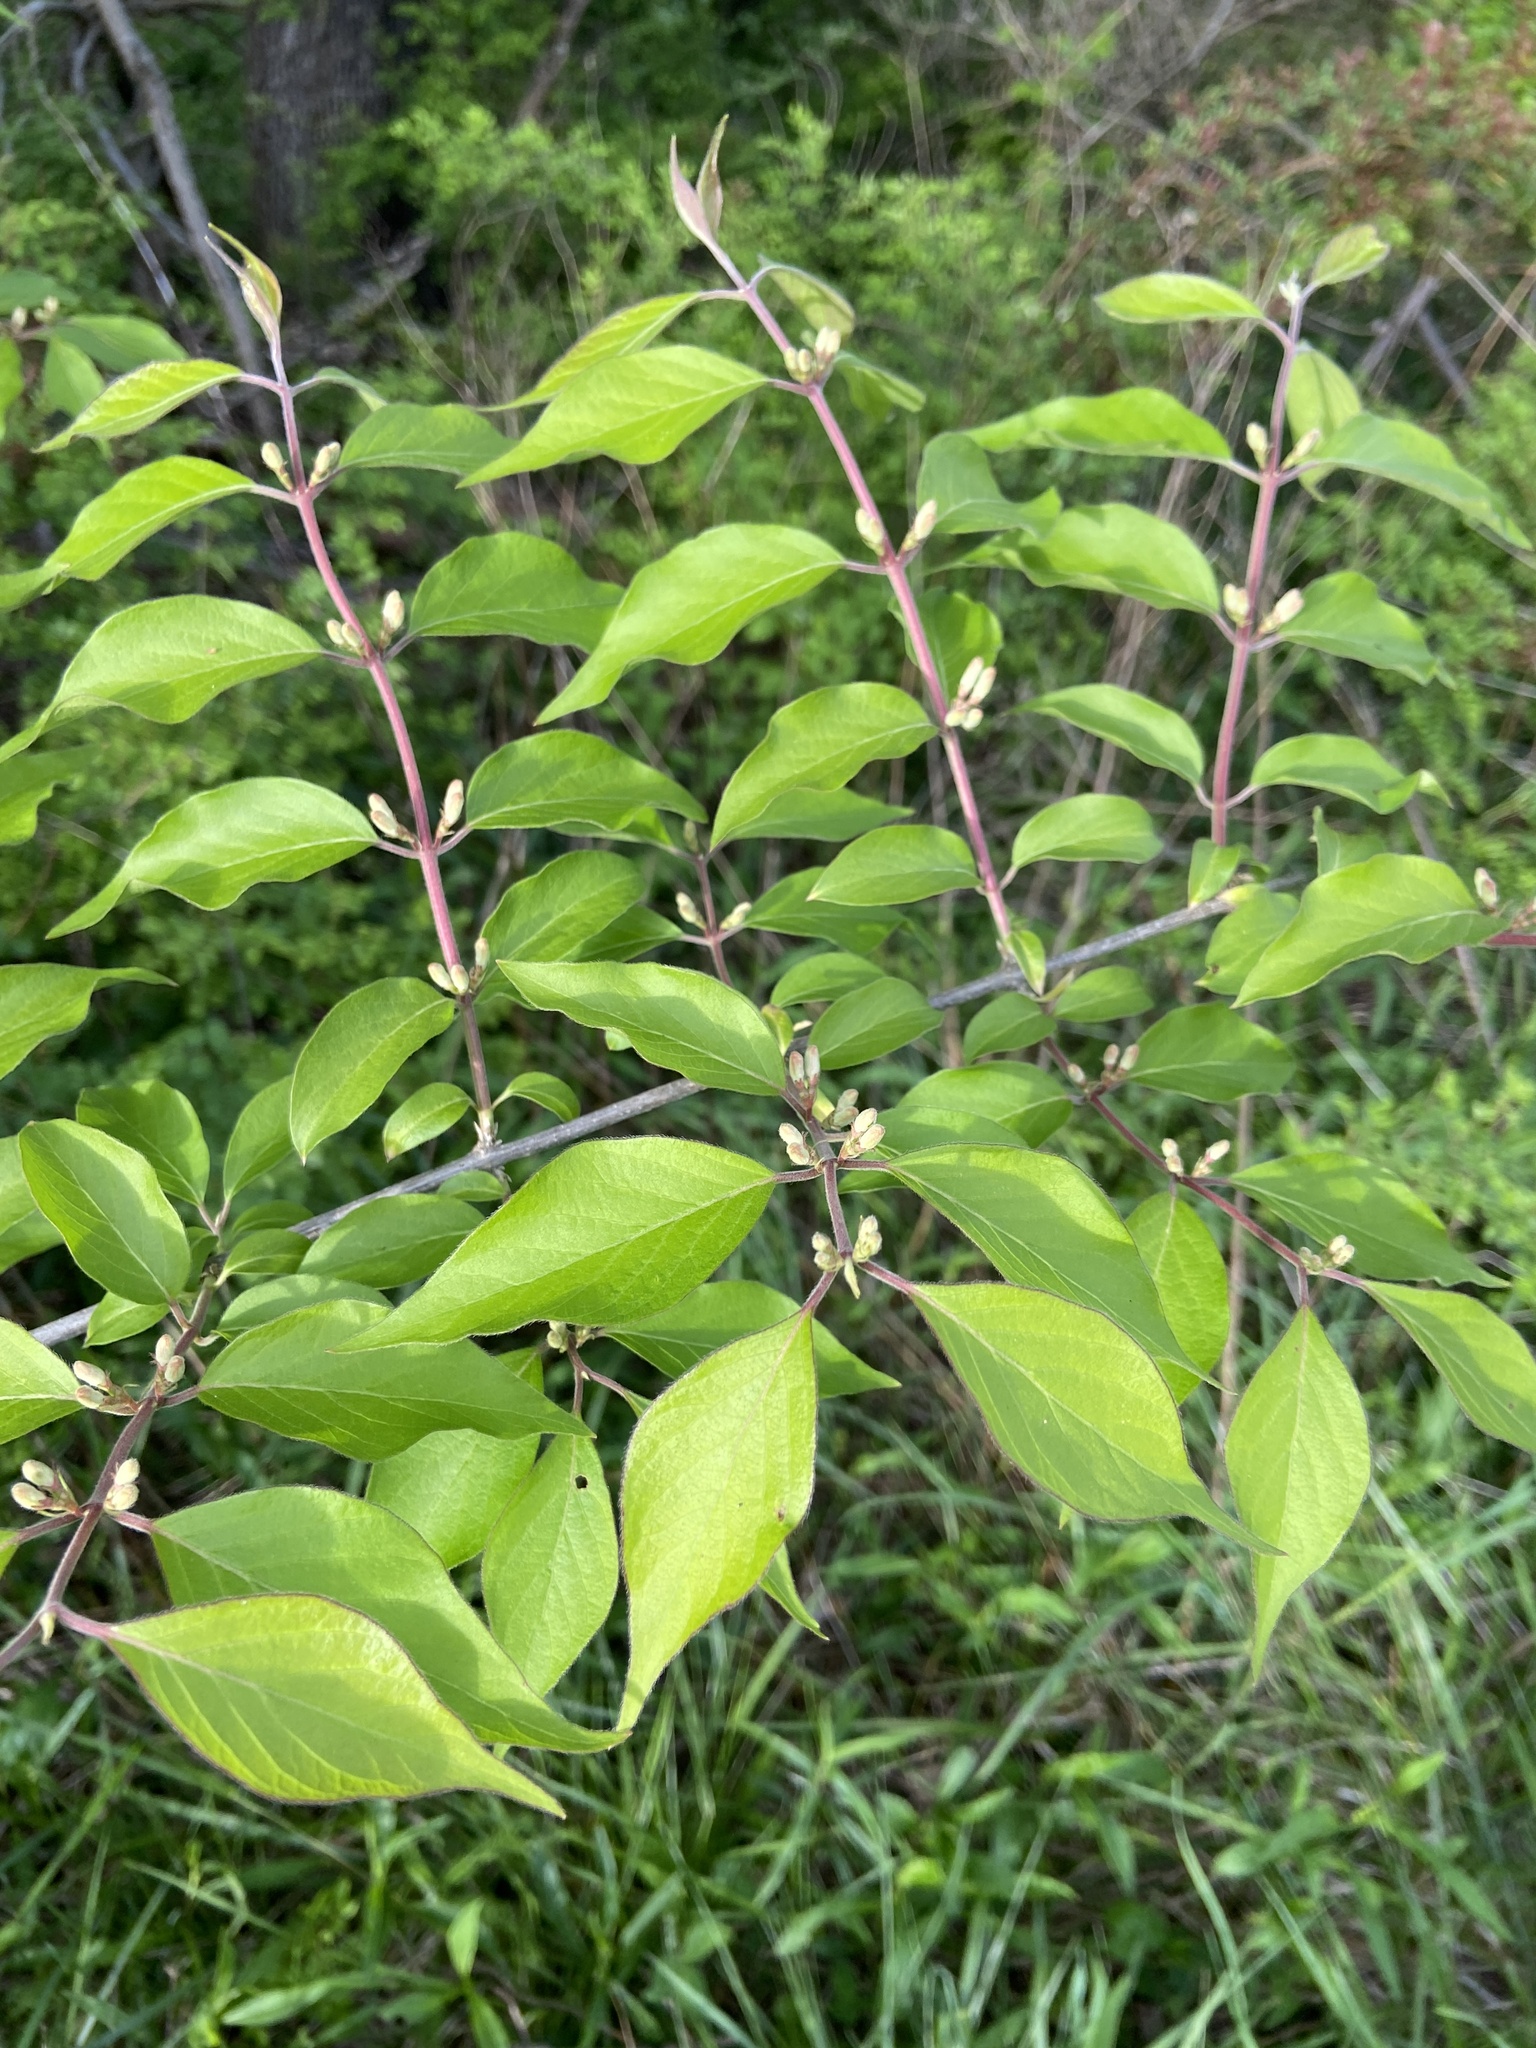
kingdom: Plantae
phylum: Tracheophyta
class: Magnoliopsida
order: Dipsacales
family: Caprifoliaceae
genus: Lonicera
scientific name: Lonicera maackii
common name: Amur honeysuckle
